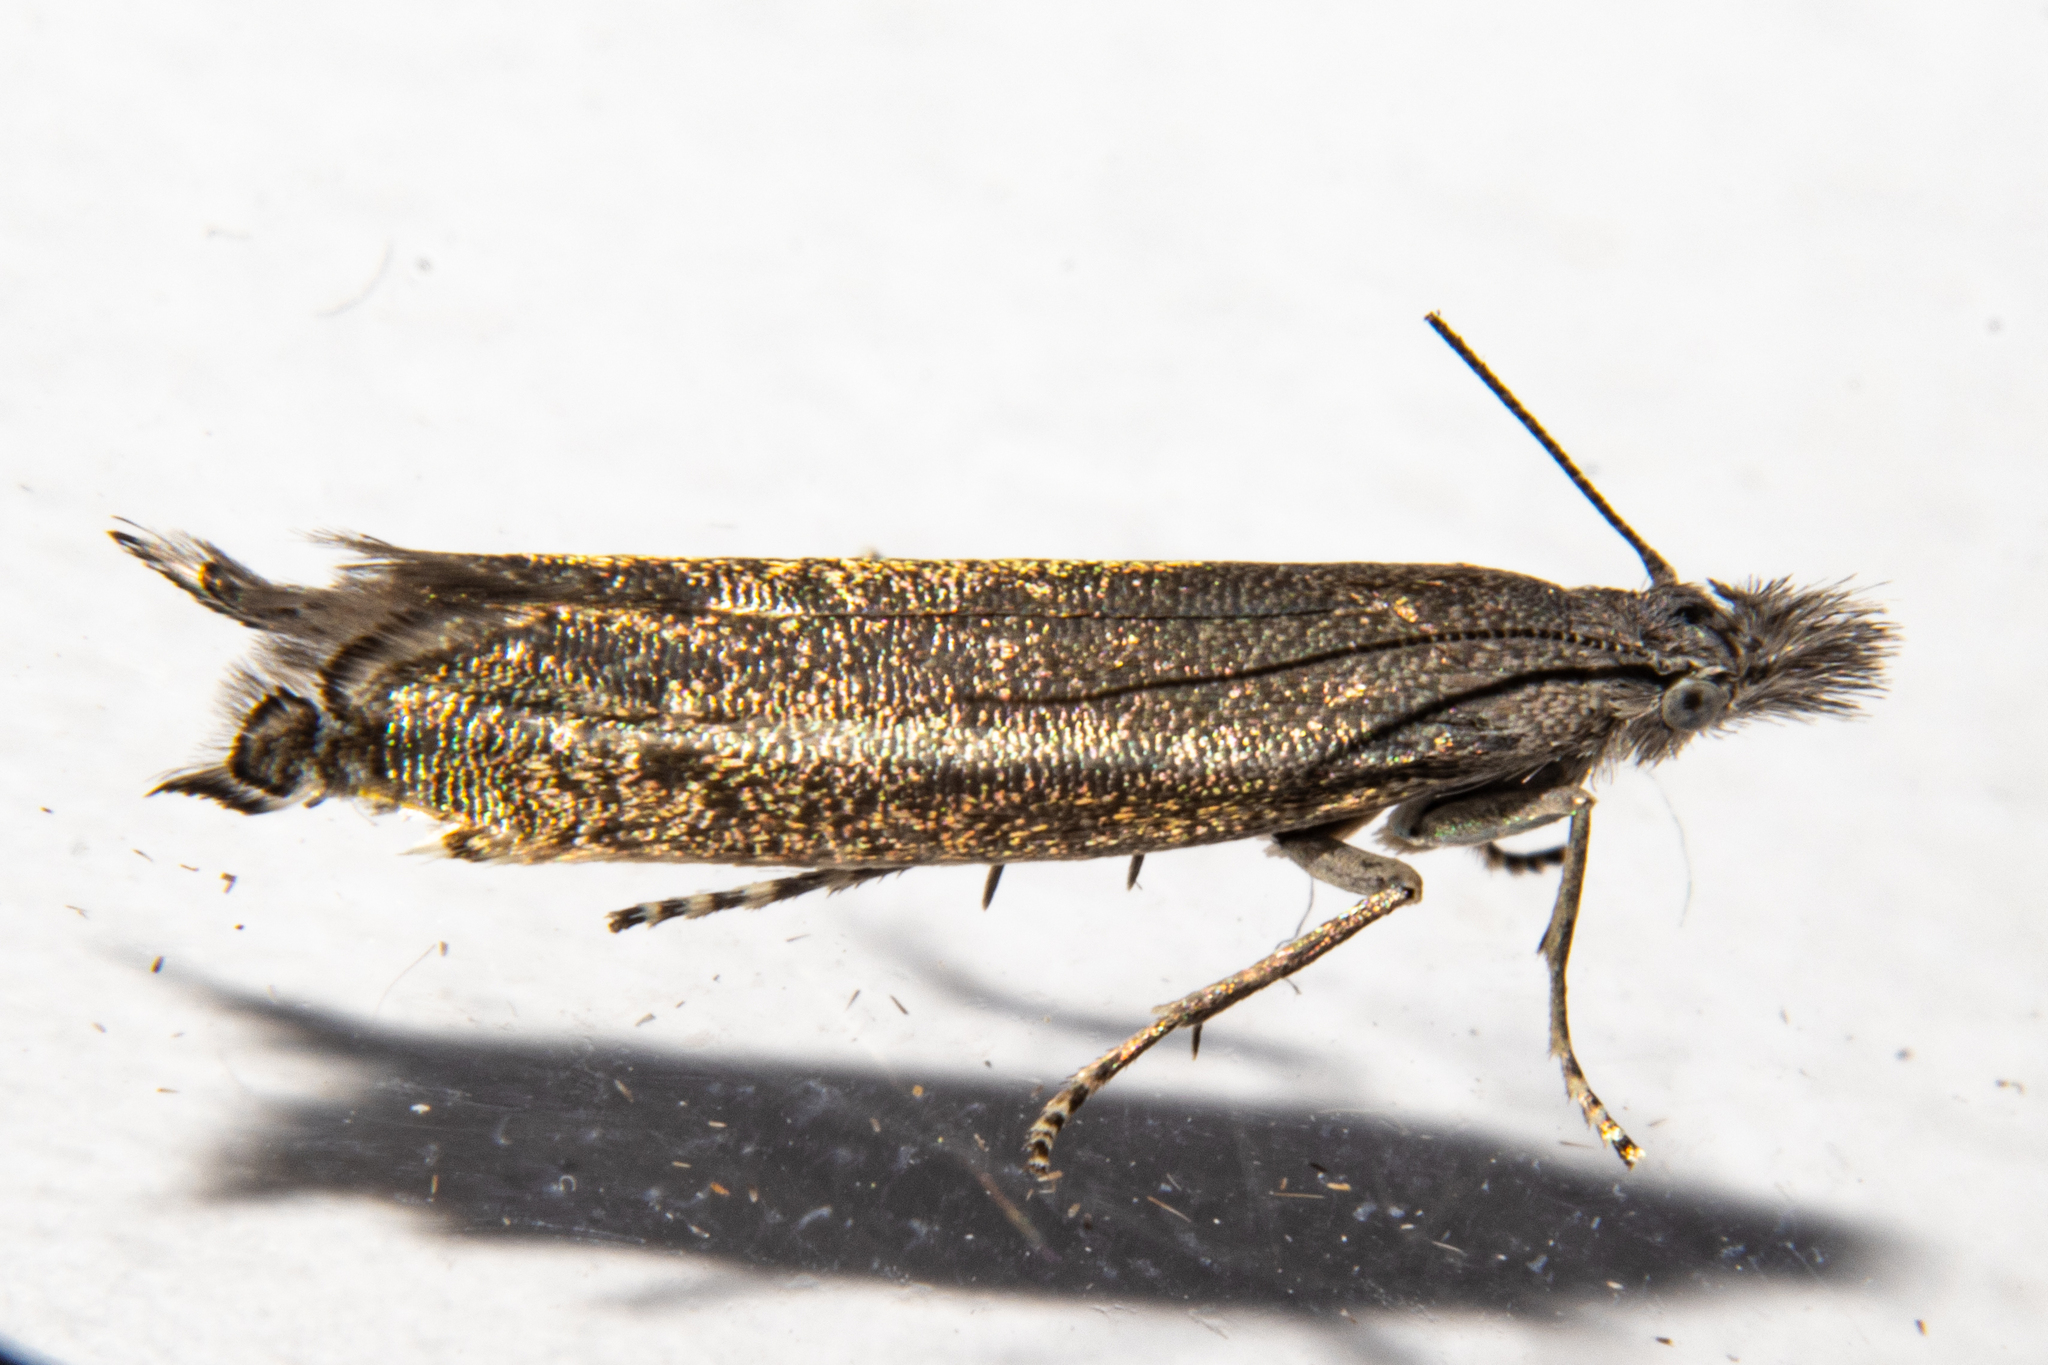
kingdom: Animalia
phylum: Arthropoda
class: Insecta
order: Lepidoptera
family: Glyphipterigidae
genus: Glyphipterix
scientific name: Glyphipterix barbata
